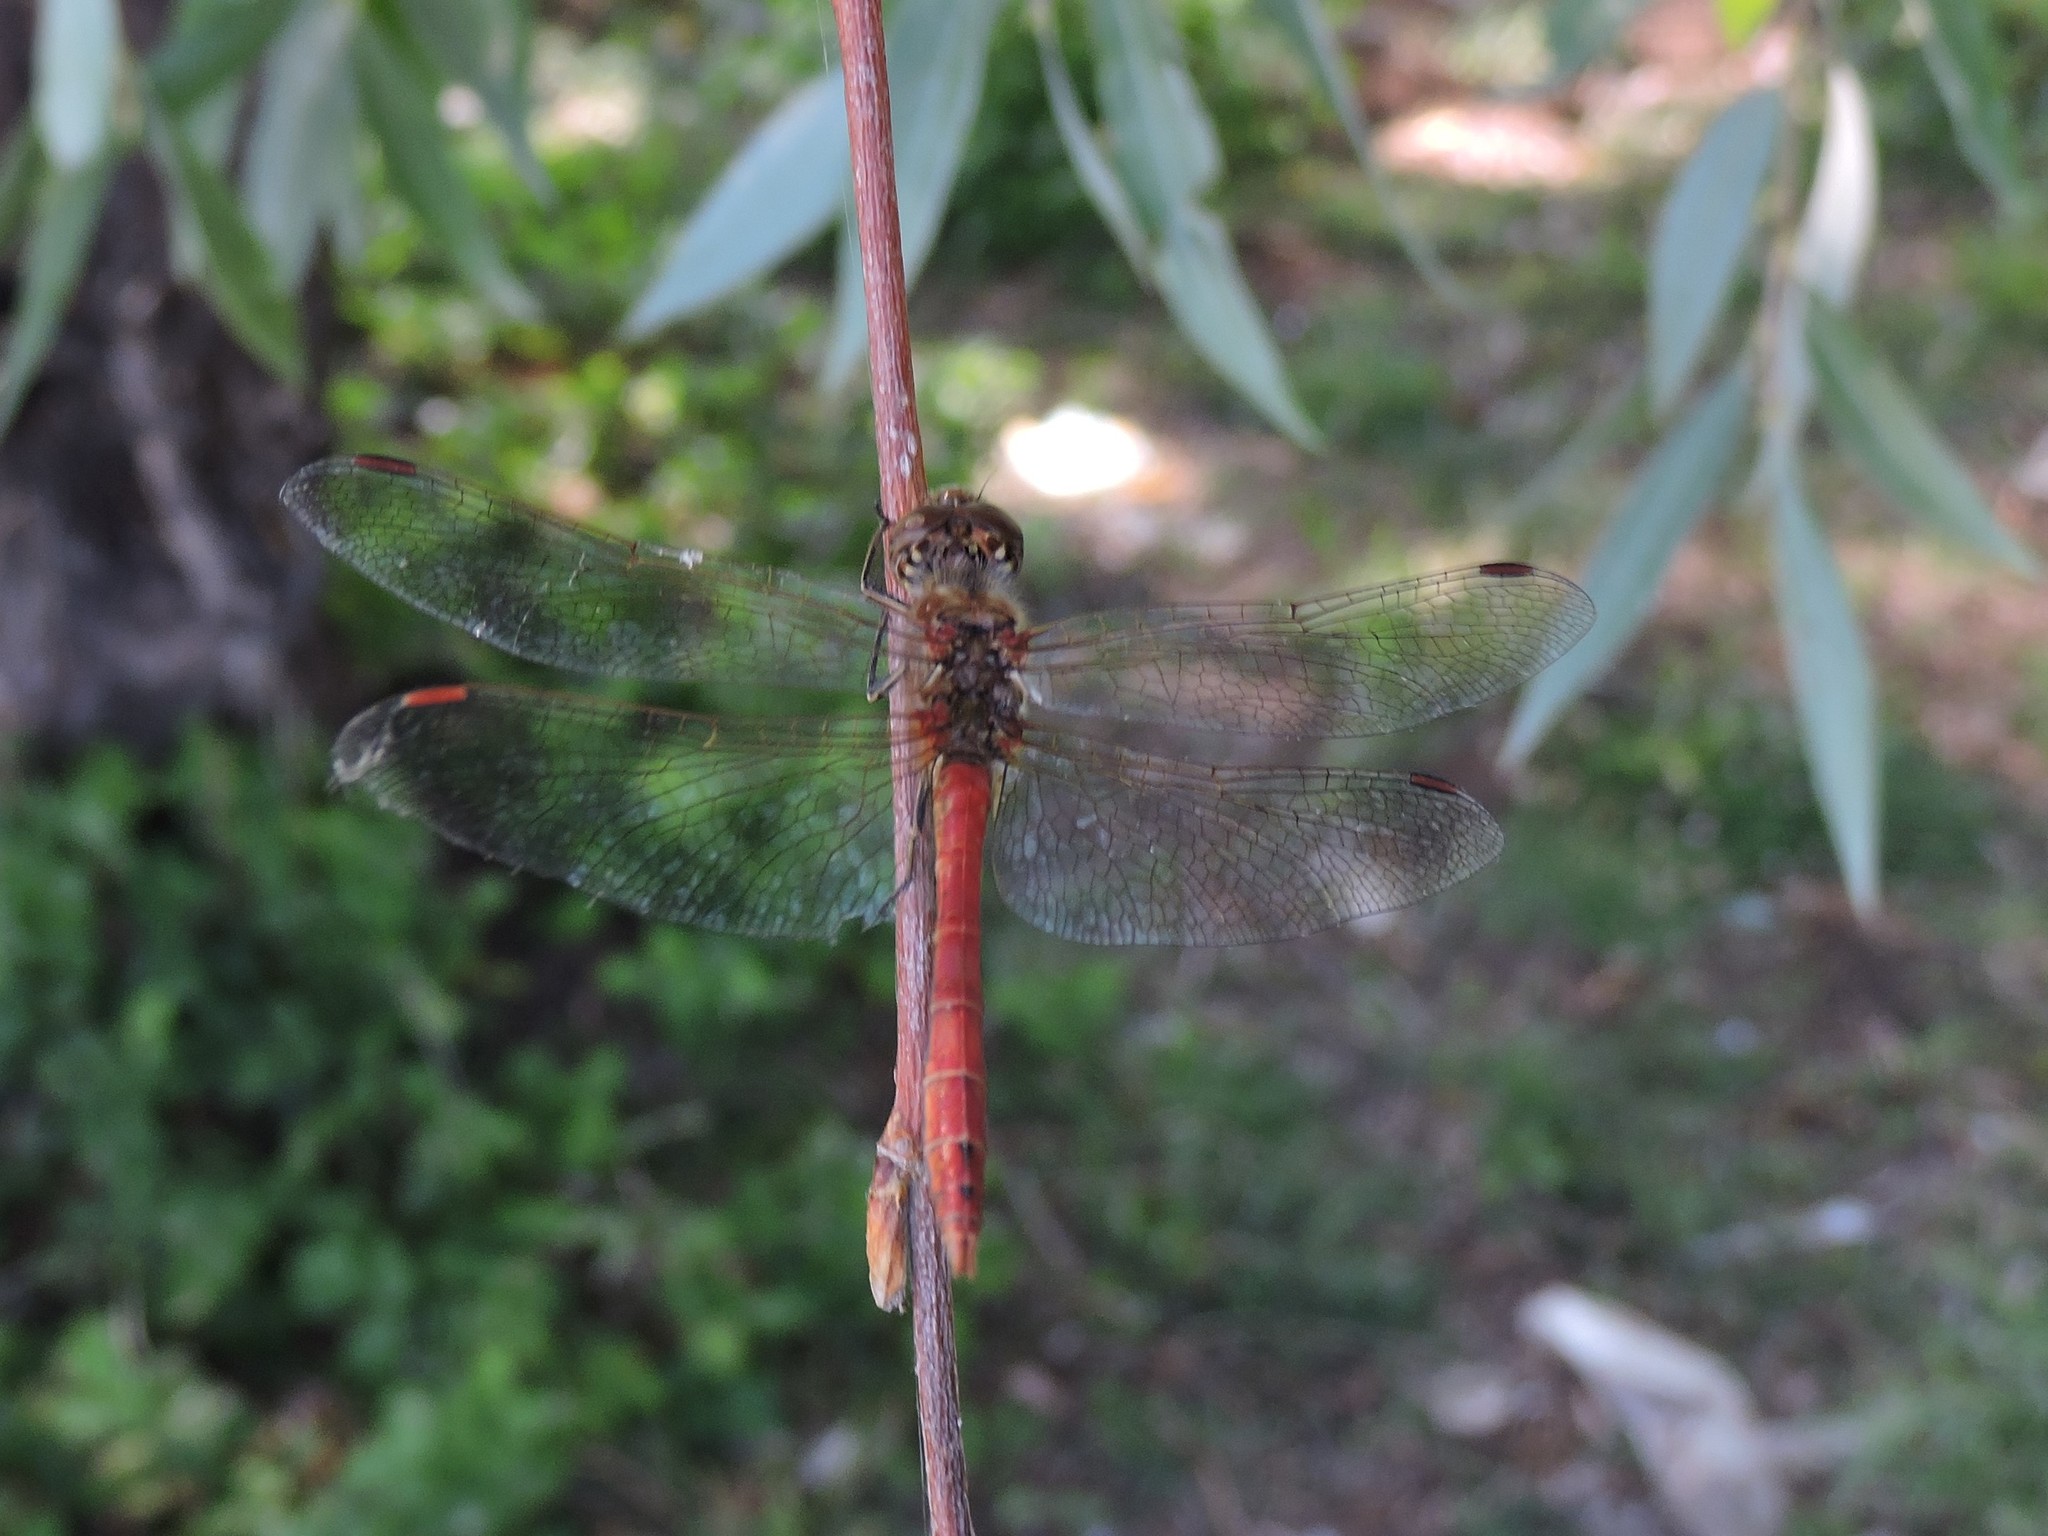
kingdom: Animalia
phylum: Arthropoda
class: Insecta
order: Odonata
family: Libellulidae
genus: Sympetrum
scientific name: Sympetrum vulgatum
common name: Vagrant darter
